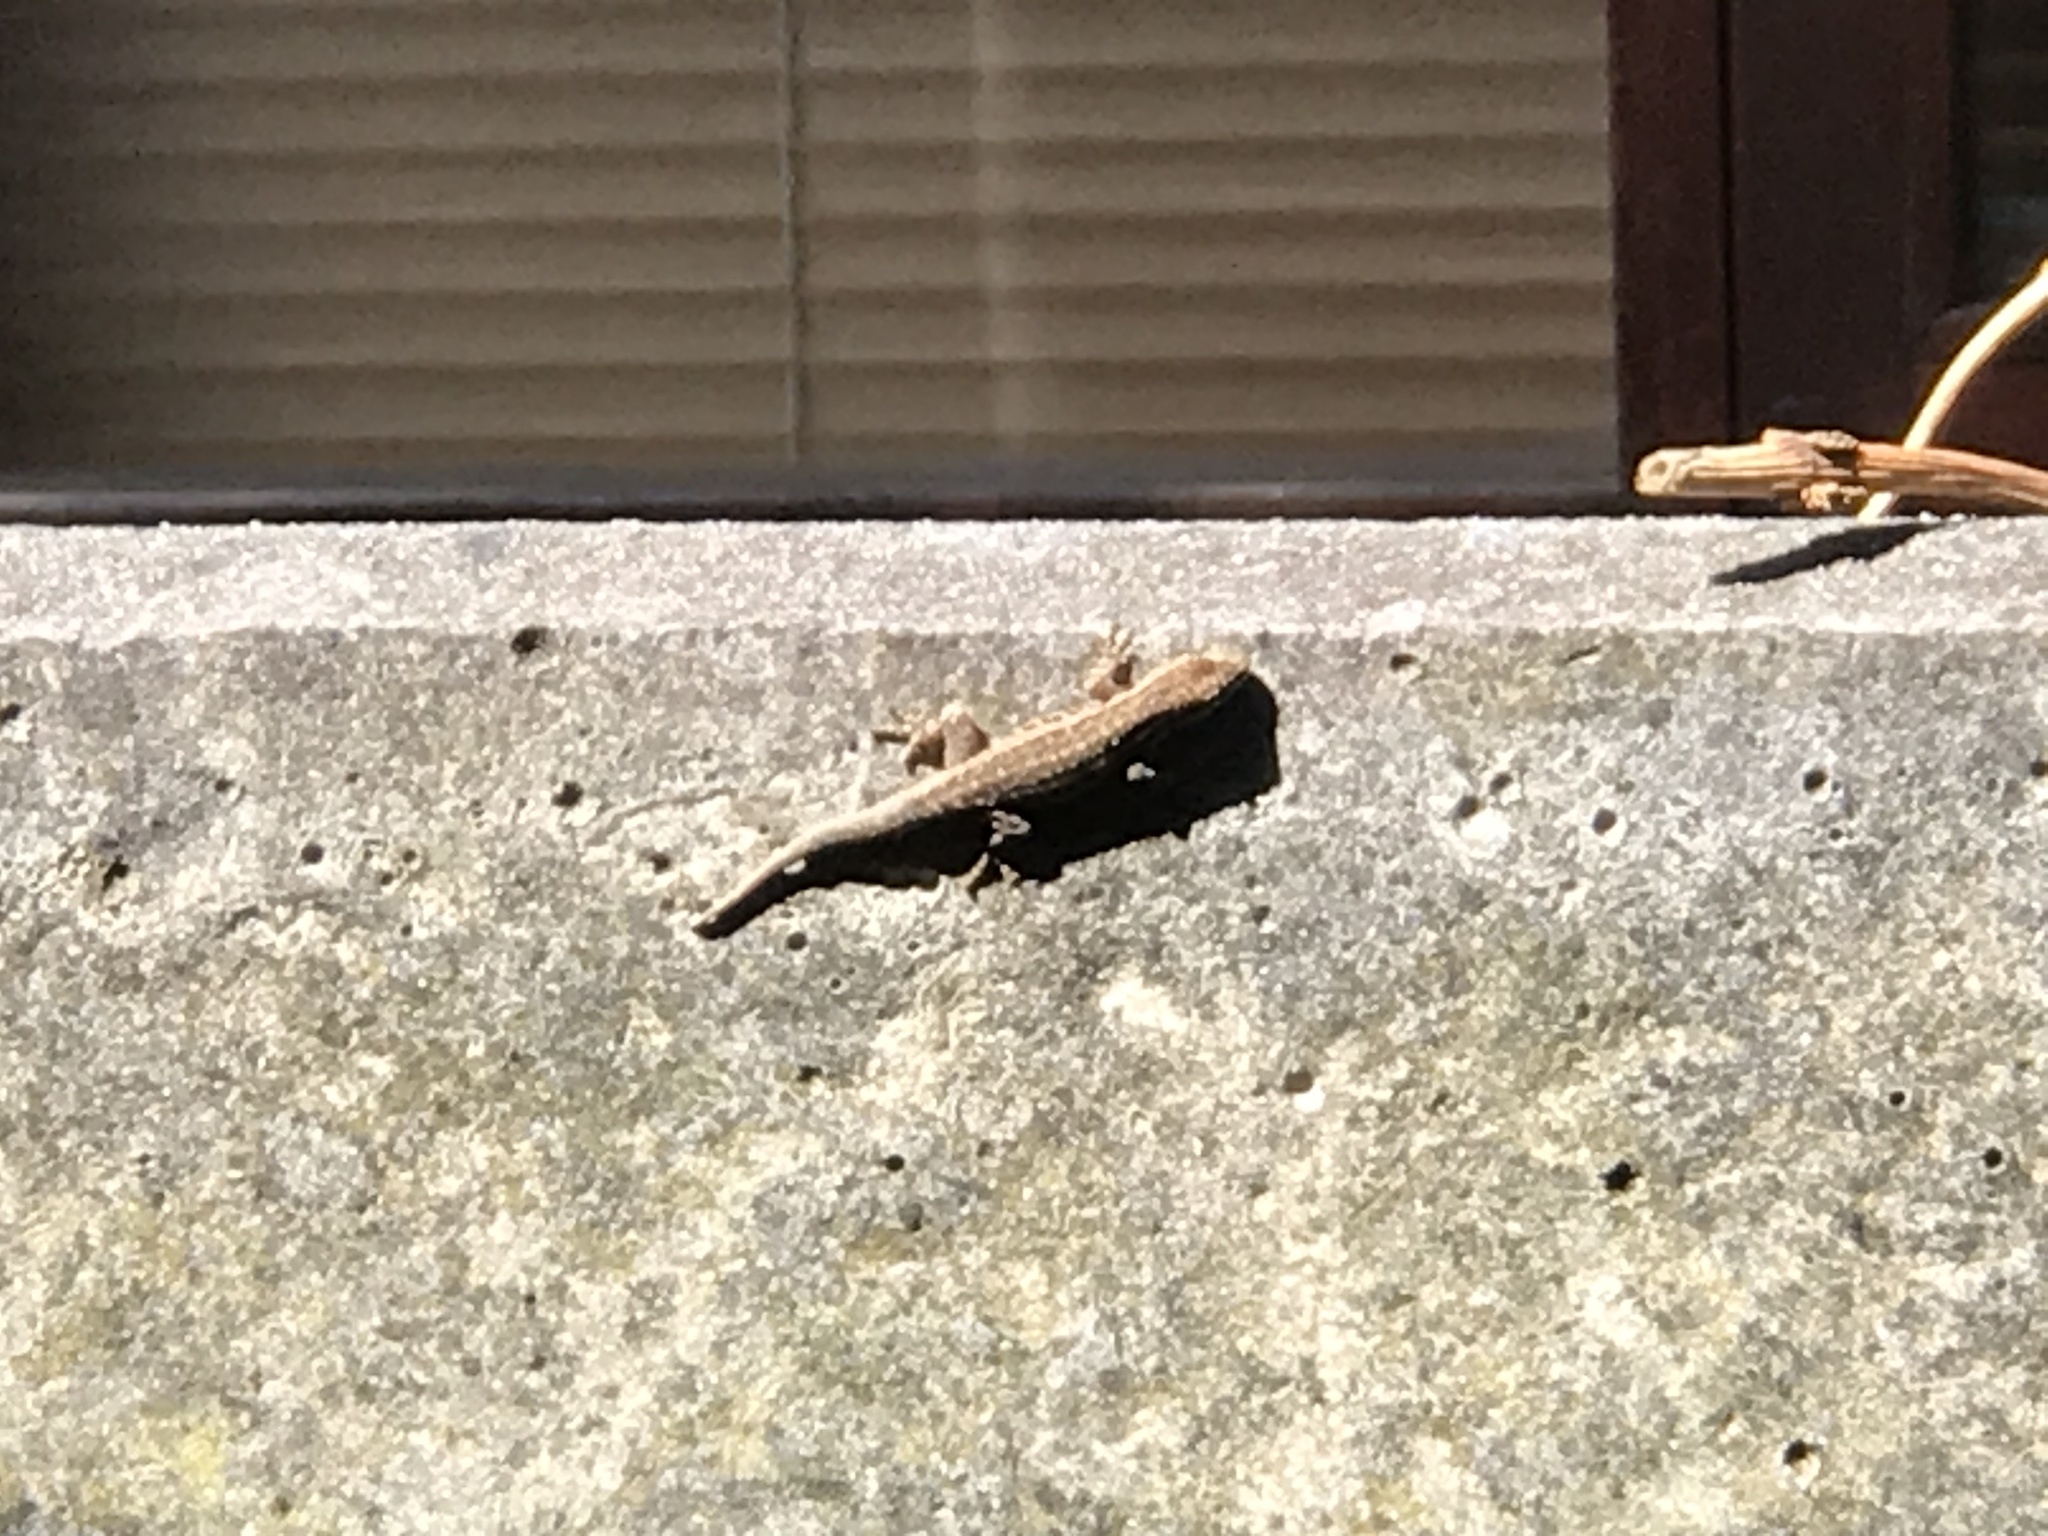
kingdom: Animalia
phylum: Chordata
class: Squamata
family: Gekkonidae
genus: Lygodactylus
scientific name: Lygodactylus capensis
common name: Cape dwarf gecko
